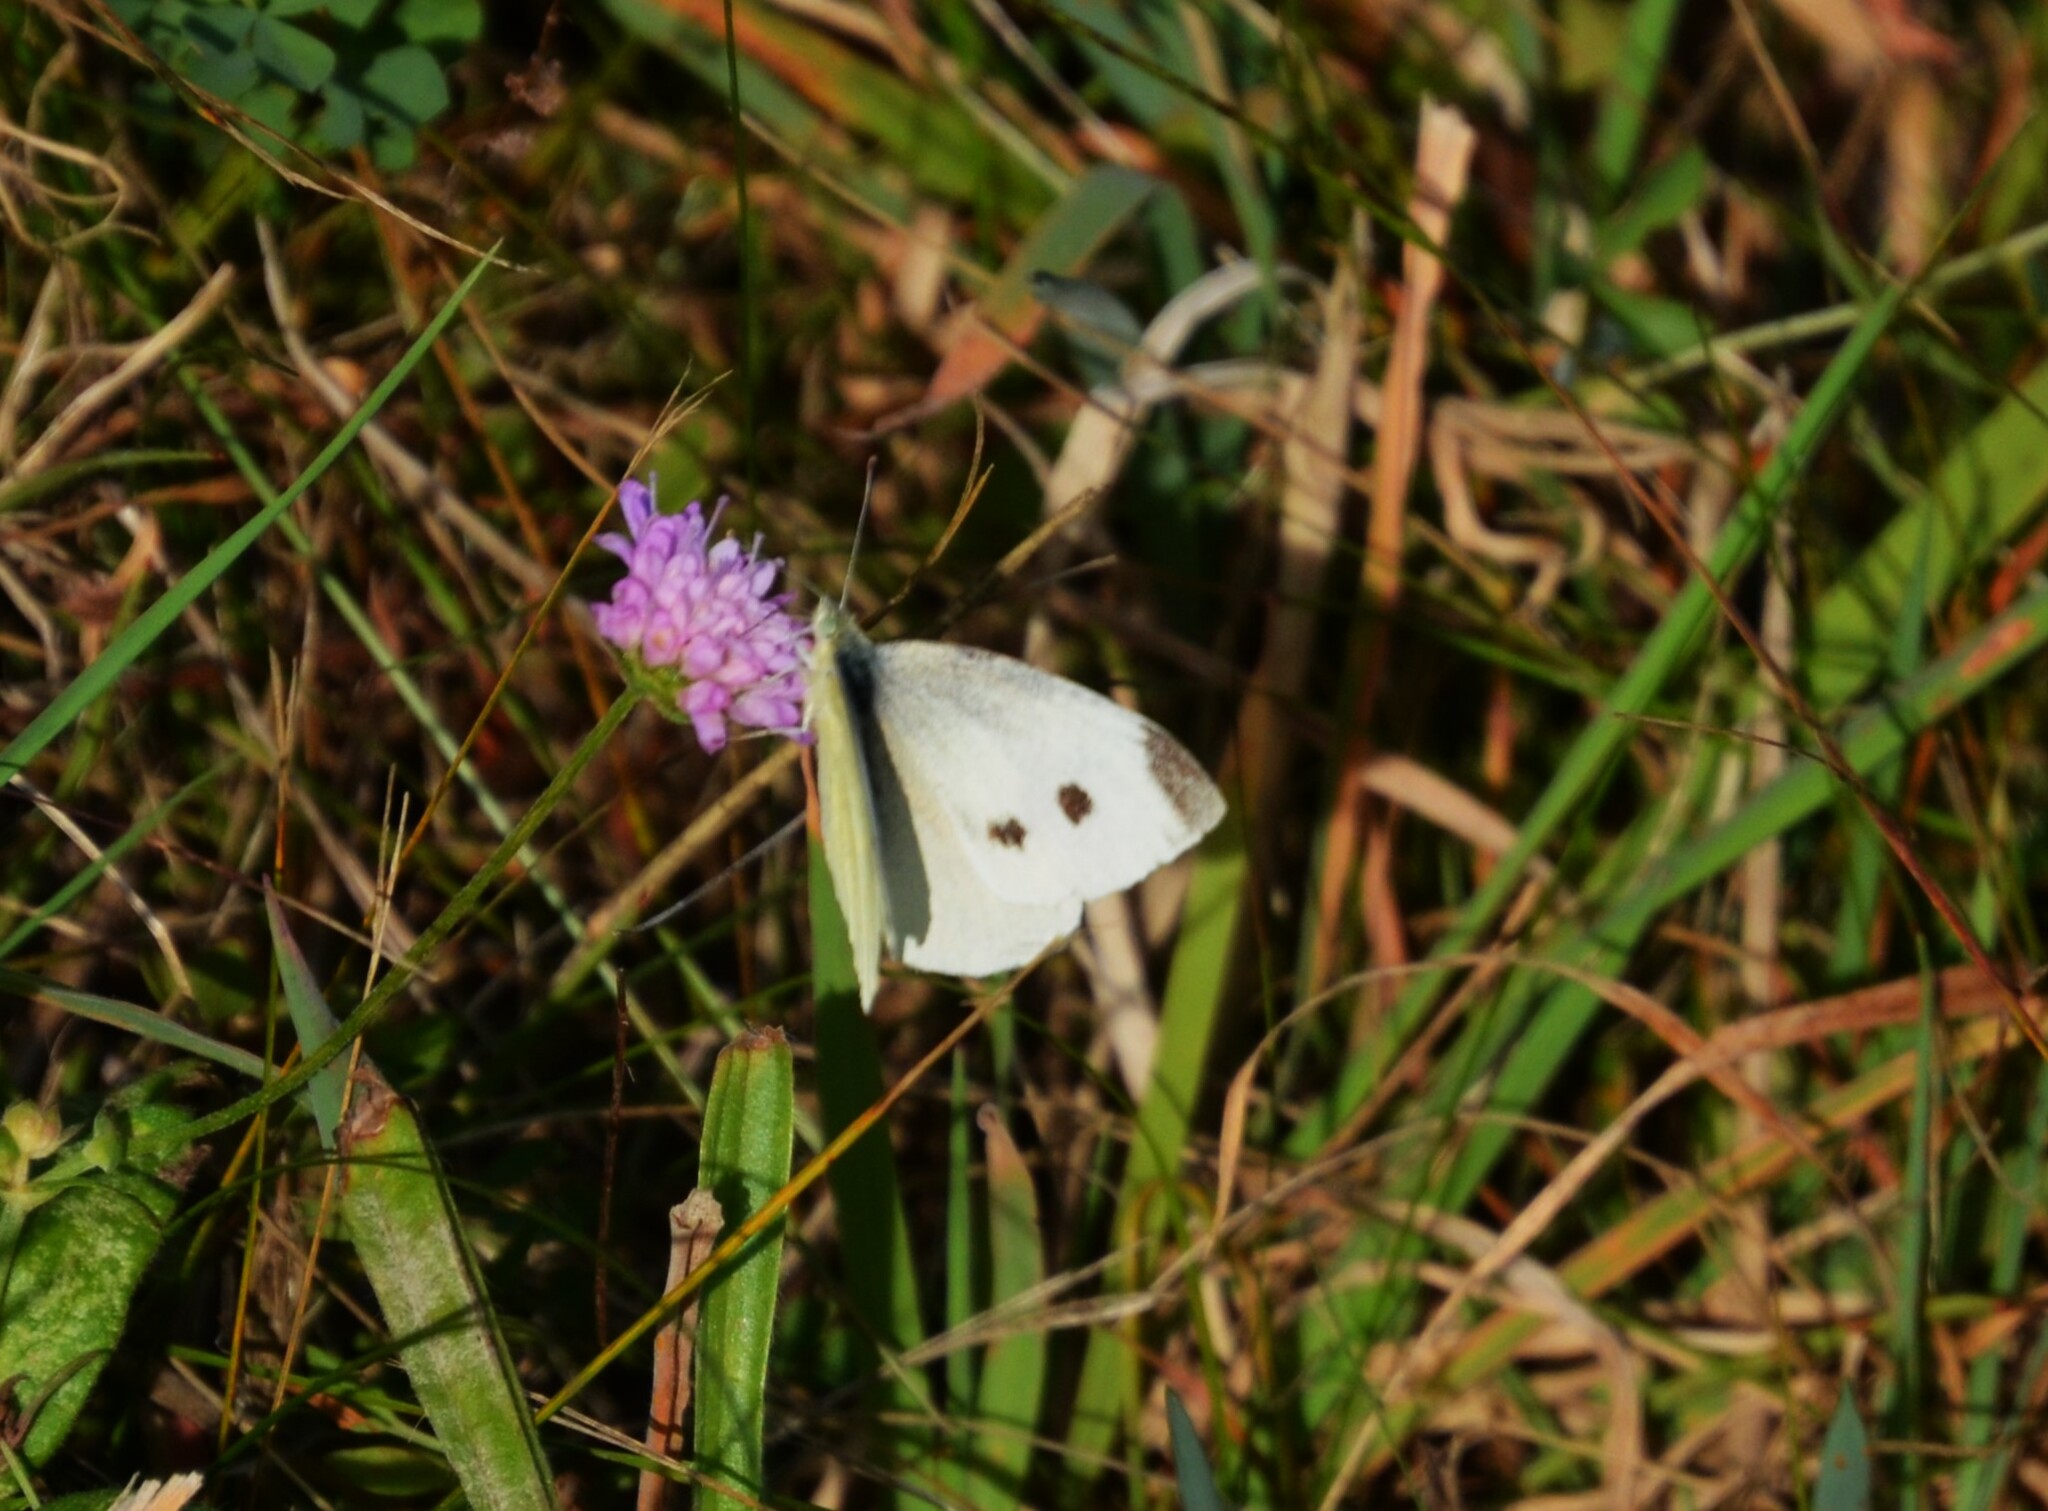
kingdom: Animalia
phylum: Arthropoda
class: Insecta
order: Lepidoptera
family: Pieridae
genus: Pieris
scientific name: Pieris rapae
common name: Small white
